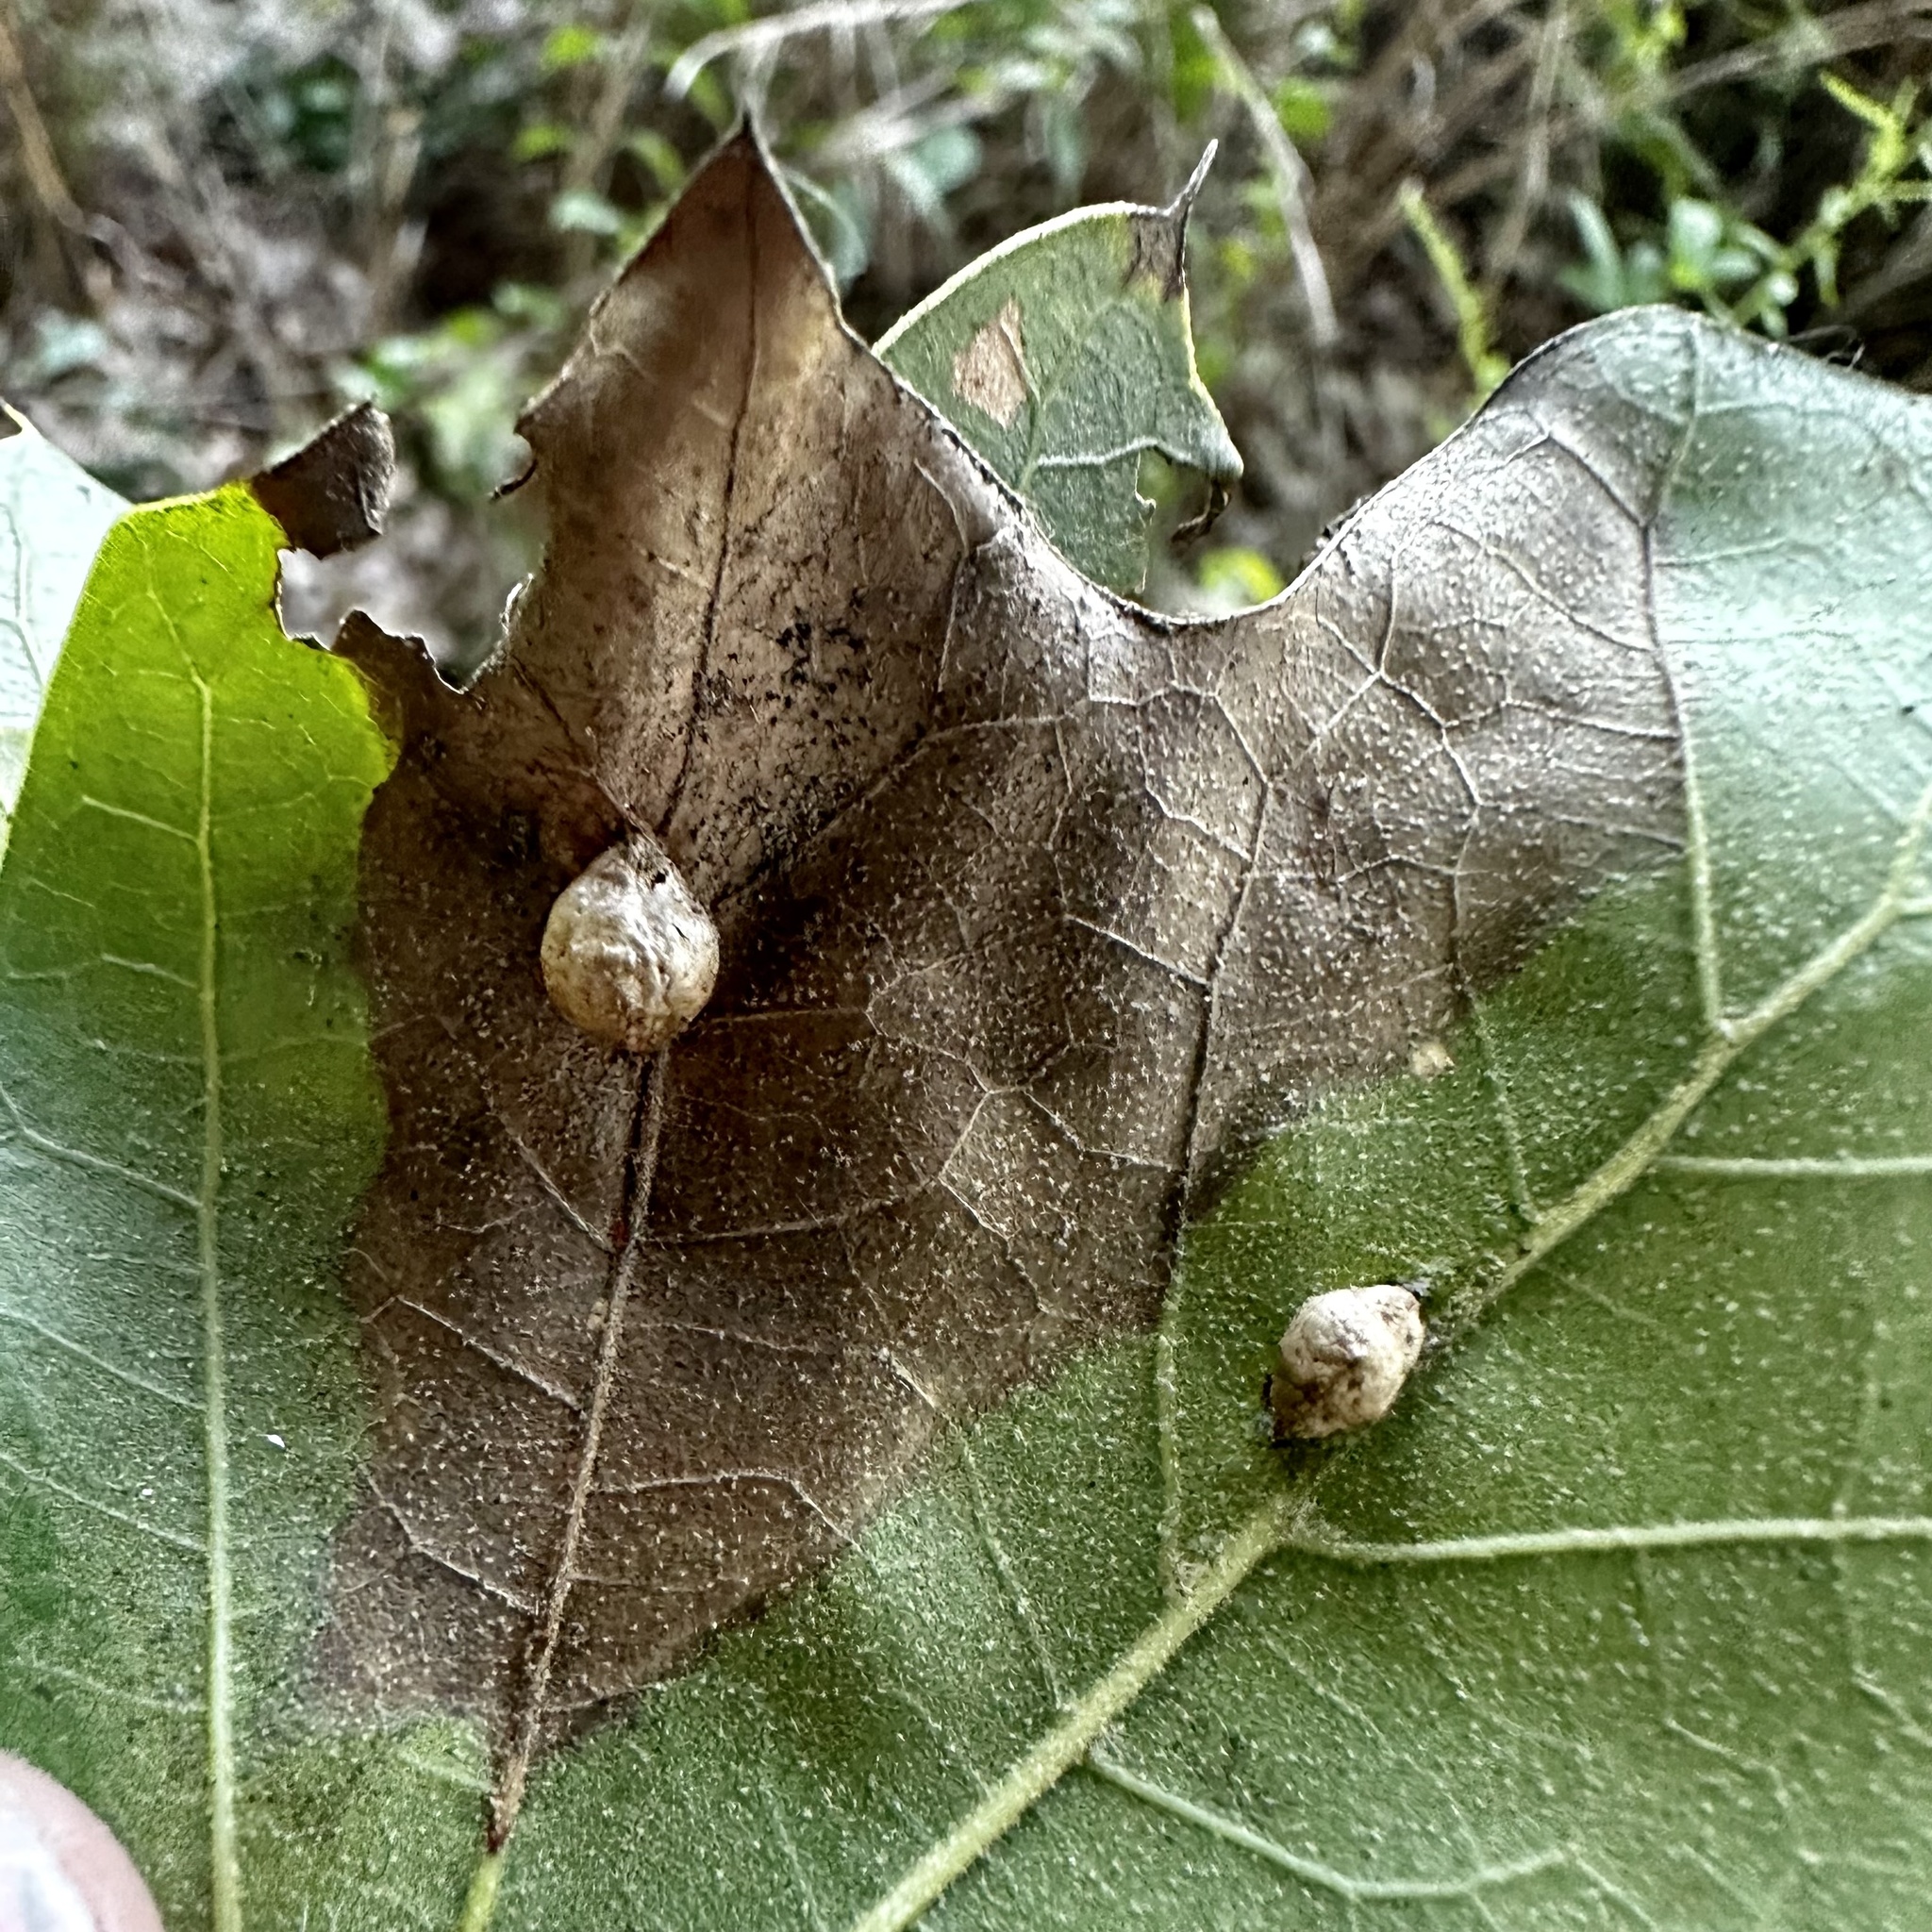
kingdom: Animalia
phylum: Arthropoda
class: Insecta
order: Diptera
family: Cecidomyiidae
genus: Macrodiplosis
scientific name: Macrodiplosis majalis
